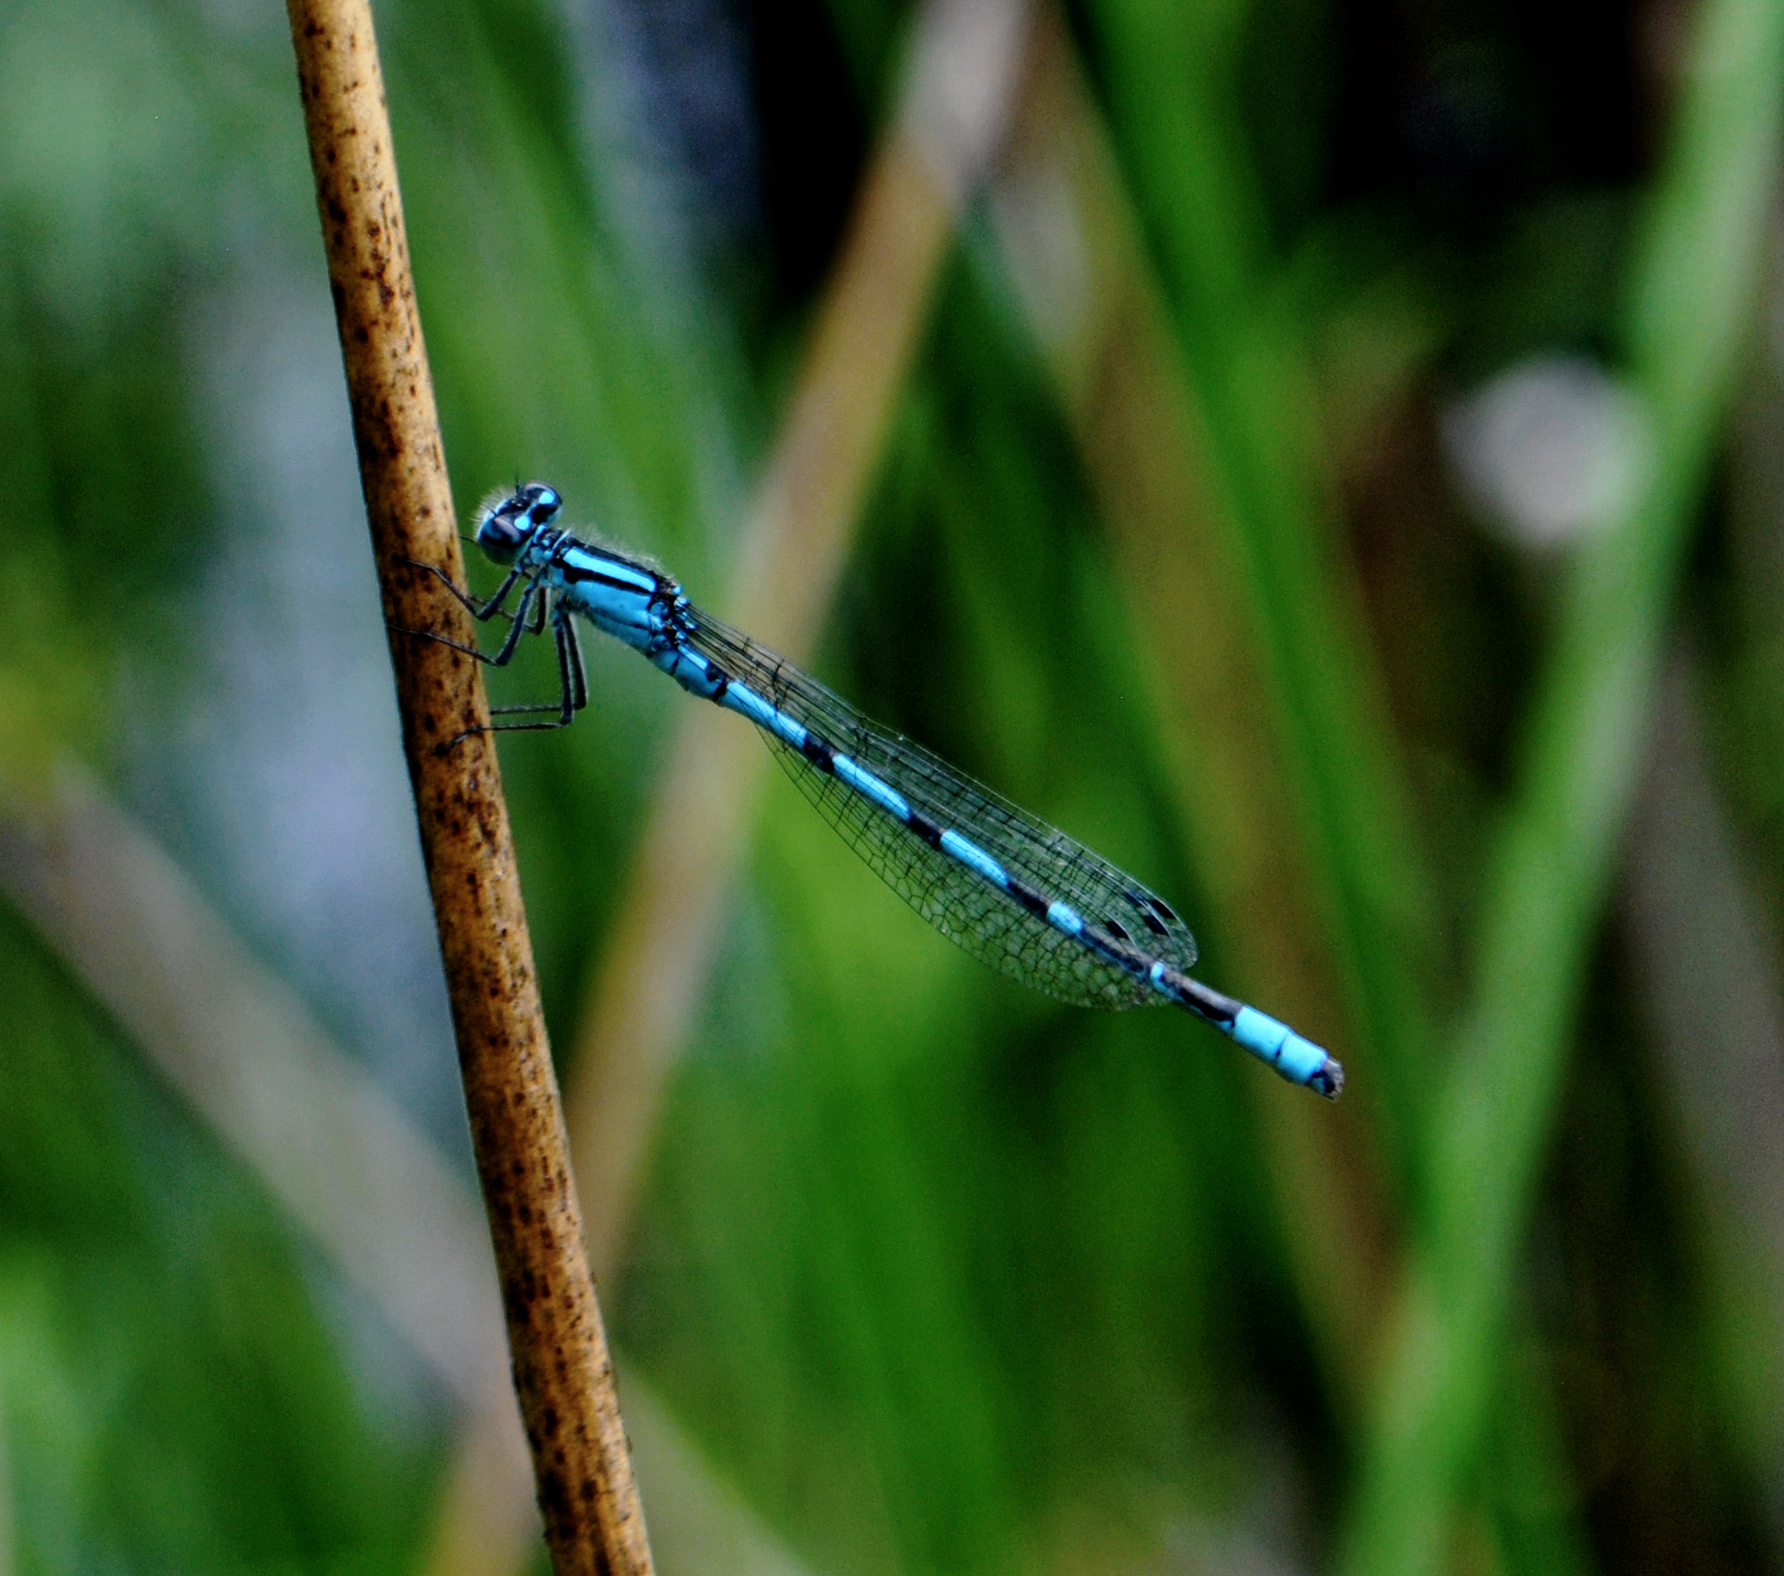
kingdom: Animalia
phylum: Arthropoda
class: Insecta
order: Odonata
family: Coenagrionidae
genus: Enallagma
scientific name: Enallagma
